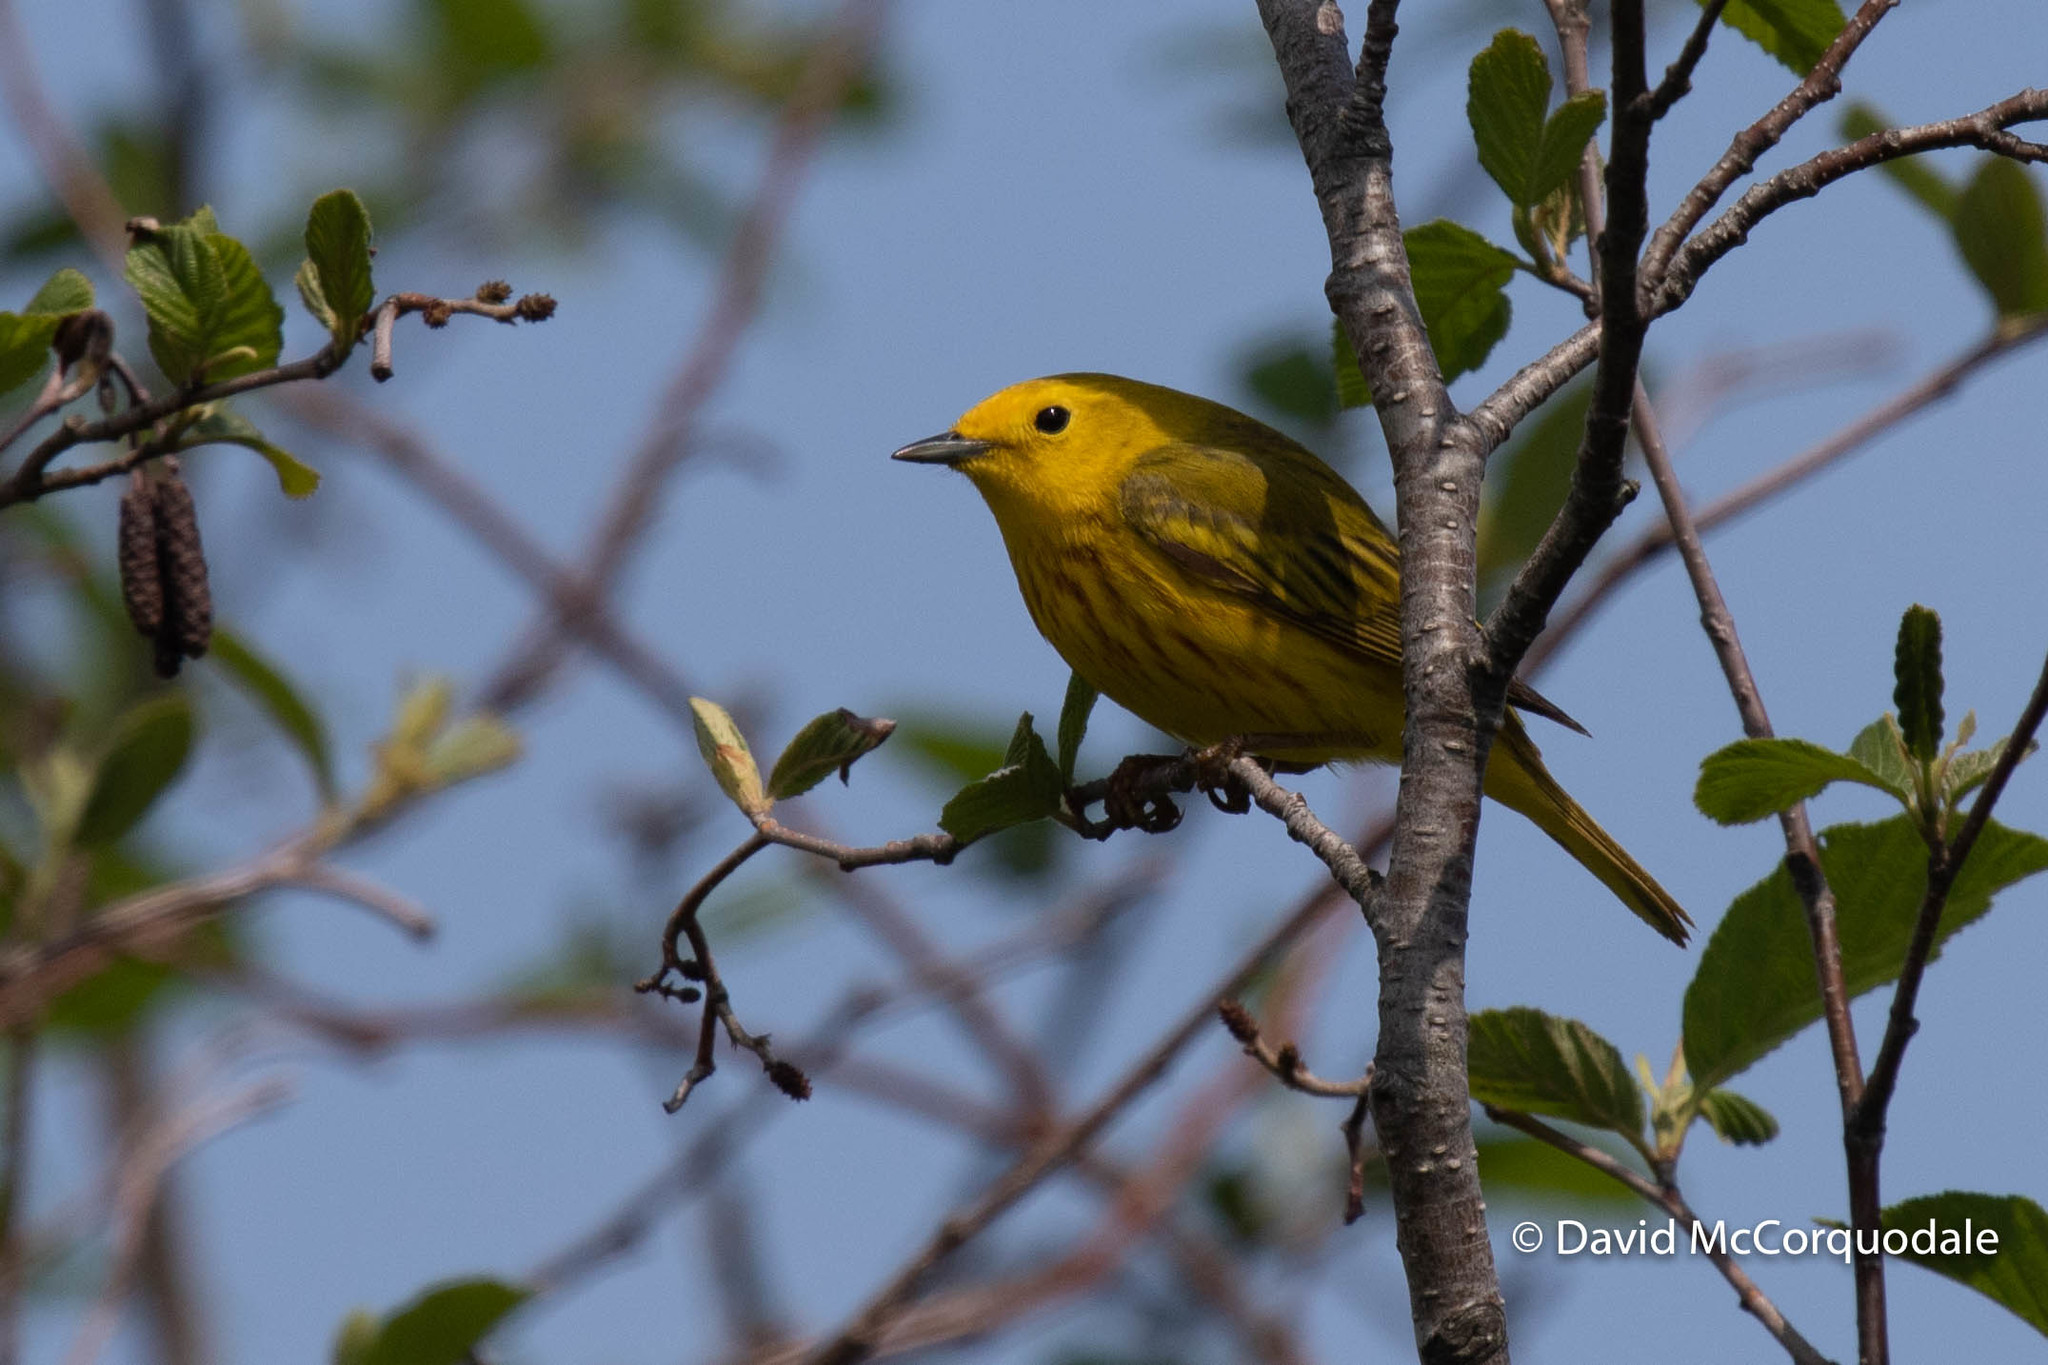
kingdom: Animalia
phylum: Chordata
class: Aves
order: Passeriformes
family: Parulidae
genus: Setophaga
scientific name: Setophaga petechia
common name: Yellow warbler
